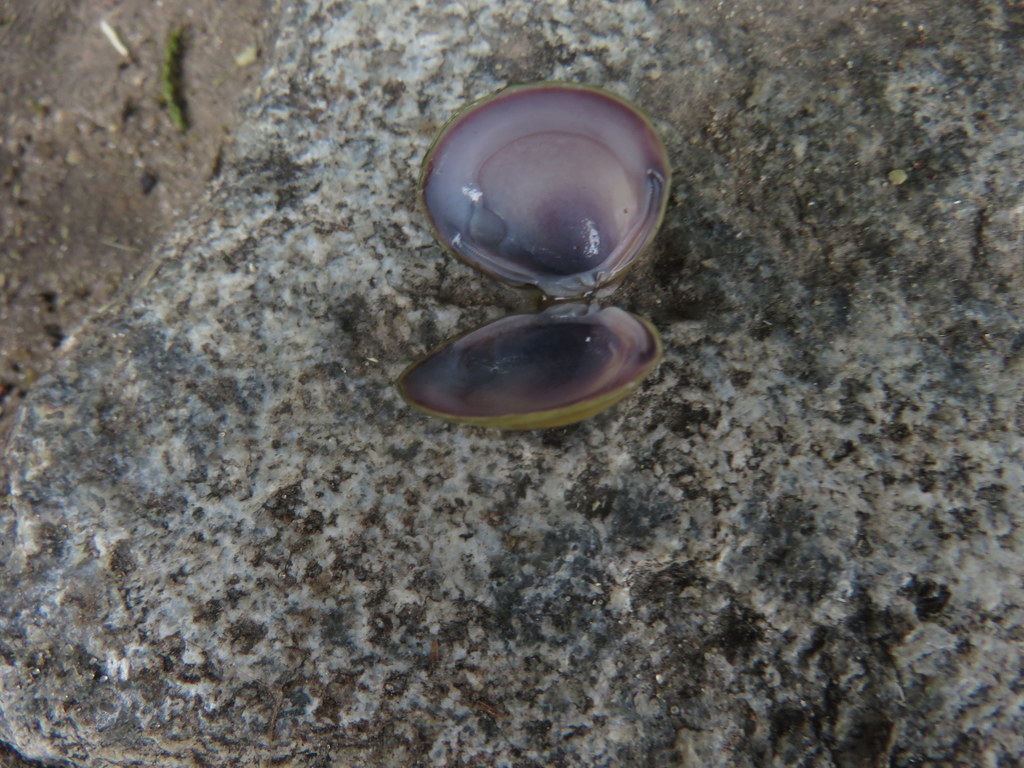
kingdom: Animalia
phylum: Mollusca
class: Bivalvia
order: Venerida
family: Cyrenidae
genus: Corbicula
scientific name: Corbicula fluminea
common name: Asian clam
